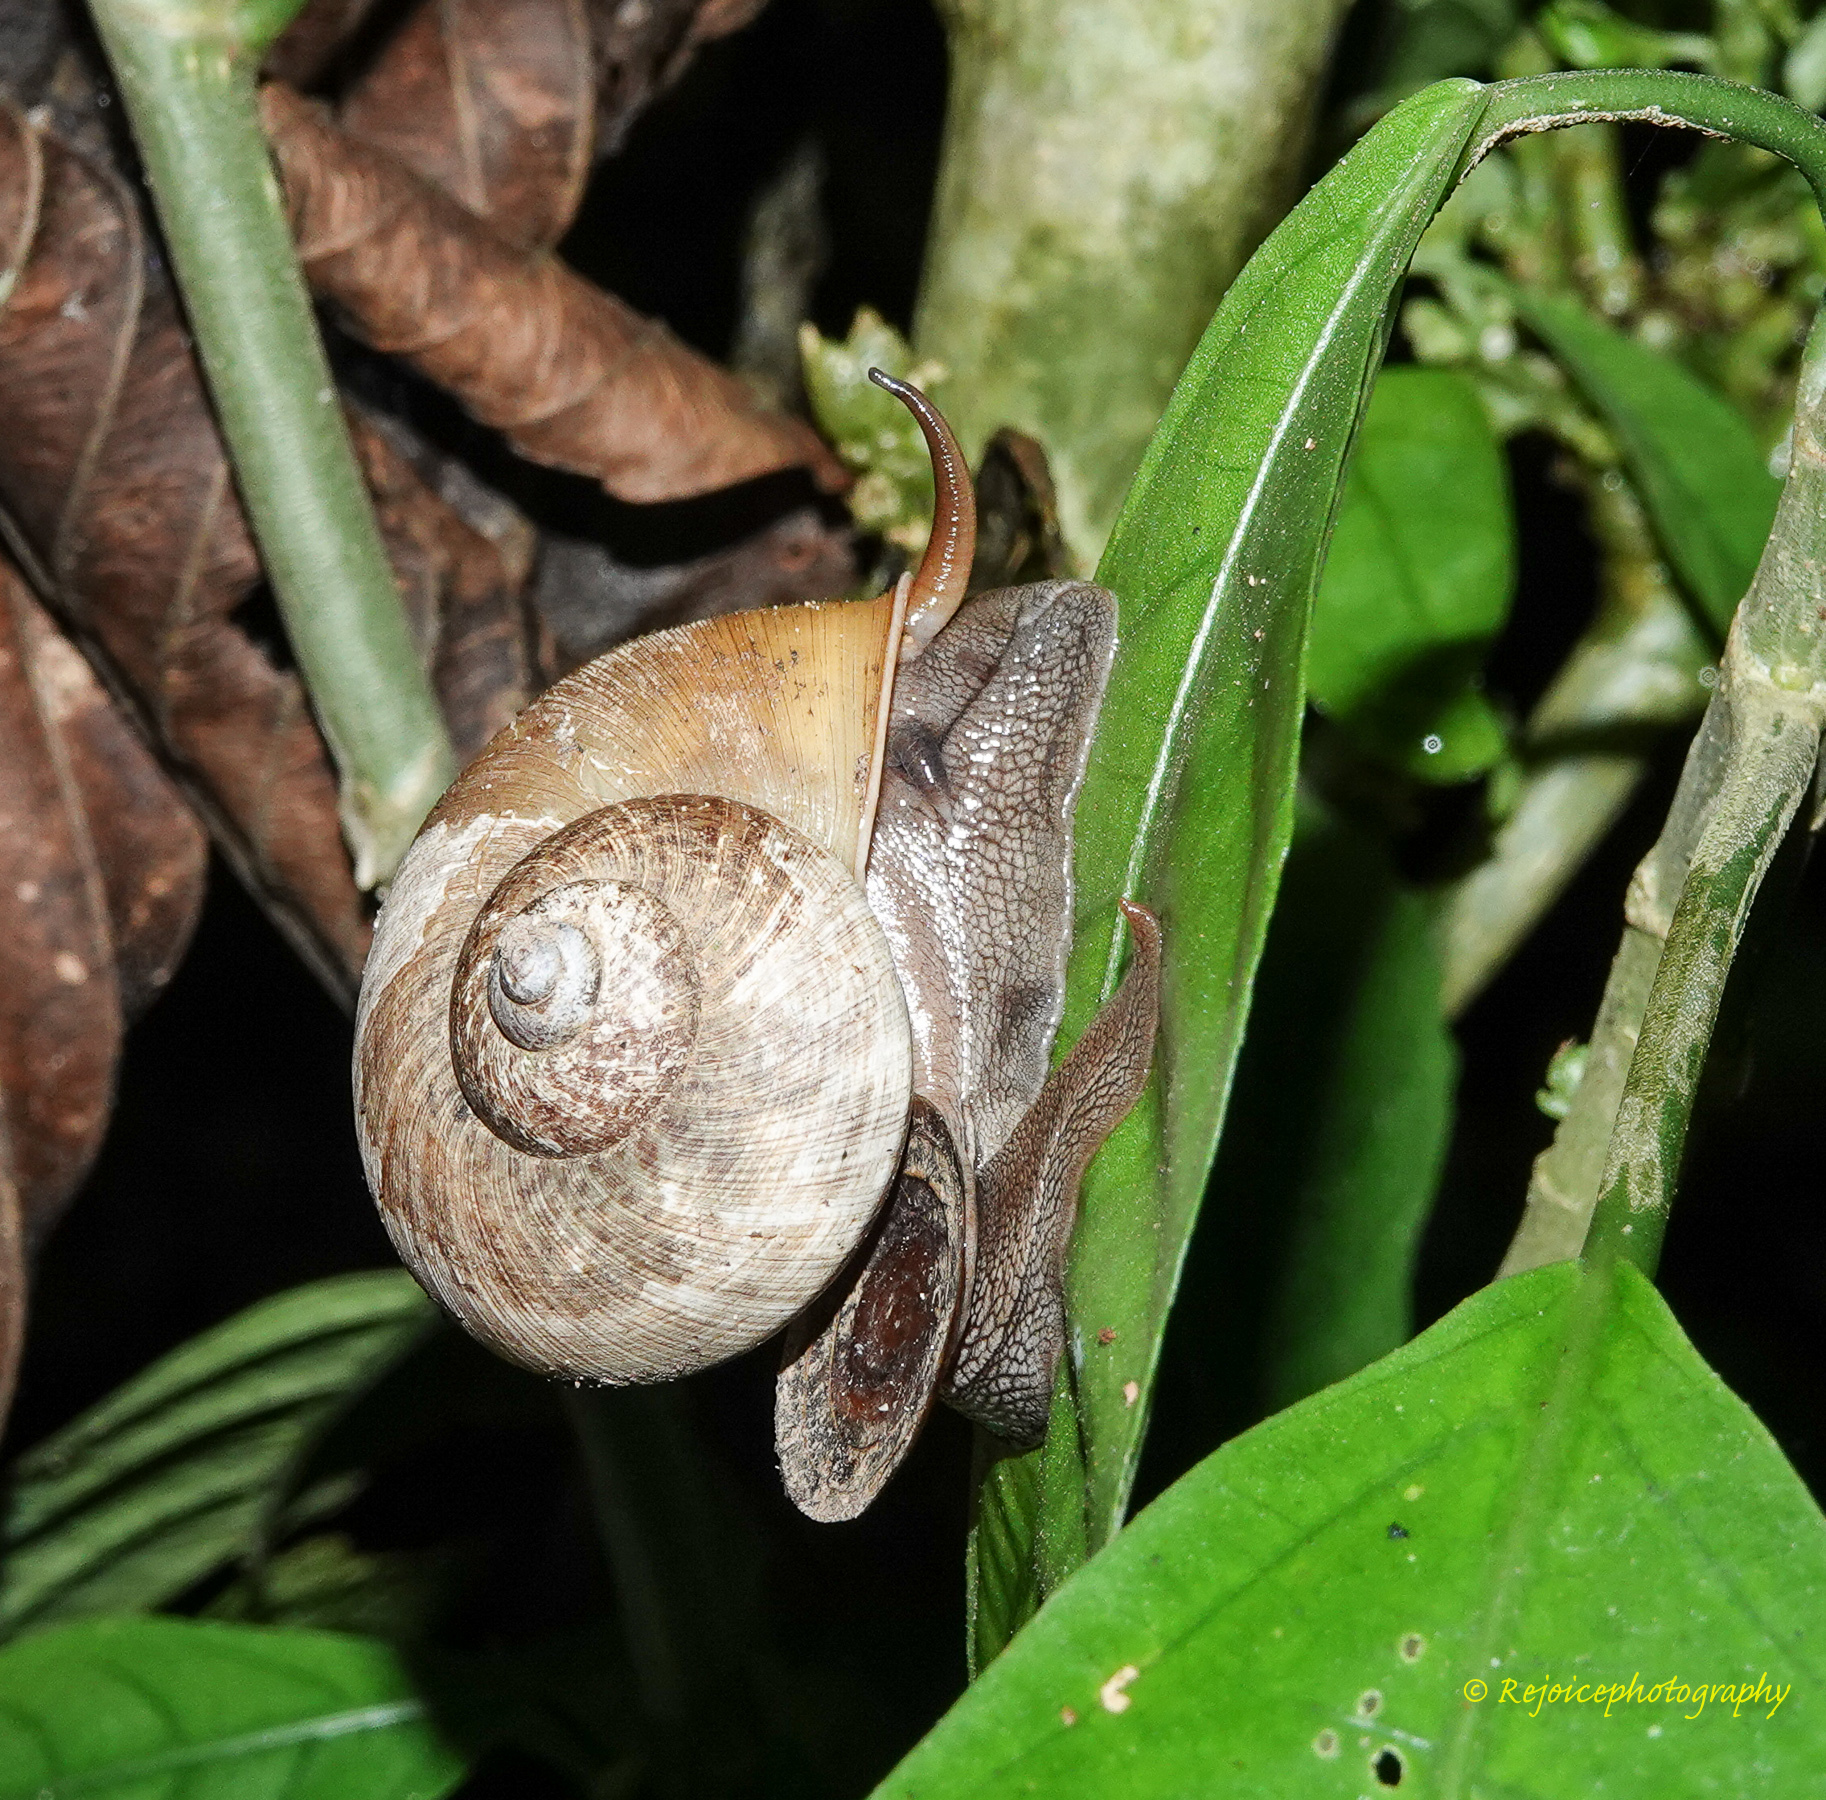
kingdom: Animalia
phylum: Mollusca
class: Gastropoda
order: Architaenioglossa
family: Cyclophoridae
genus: Cyclophorus
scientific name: Cyclophorus polynema
